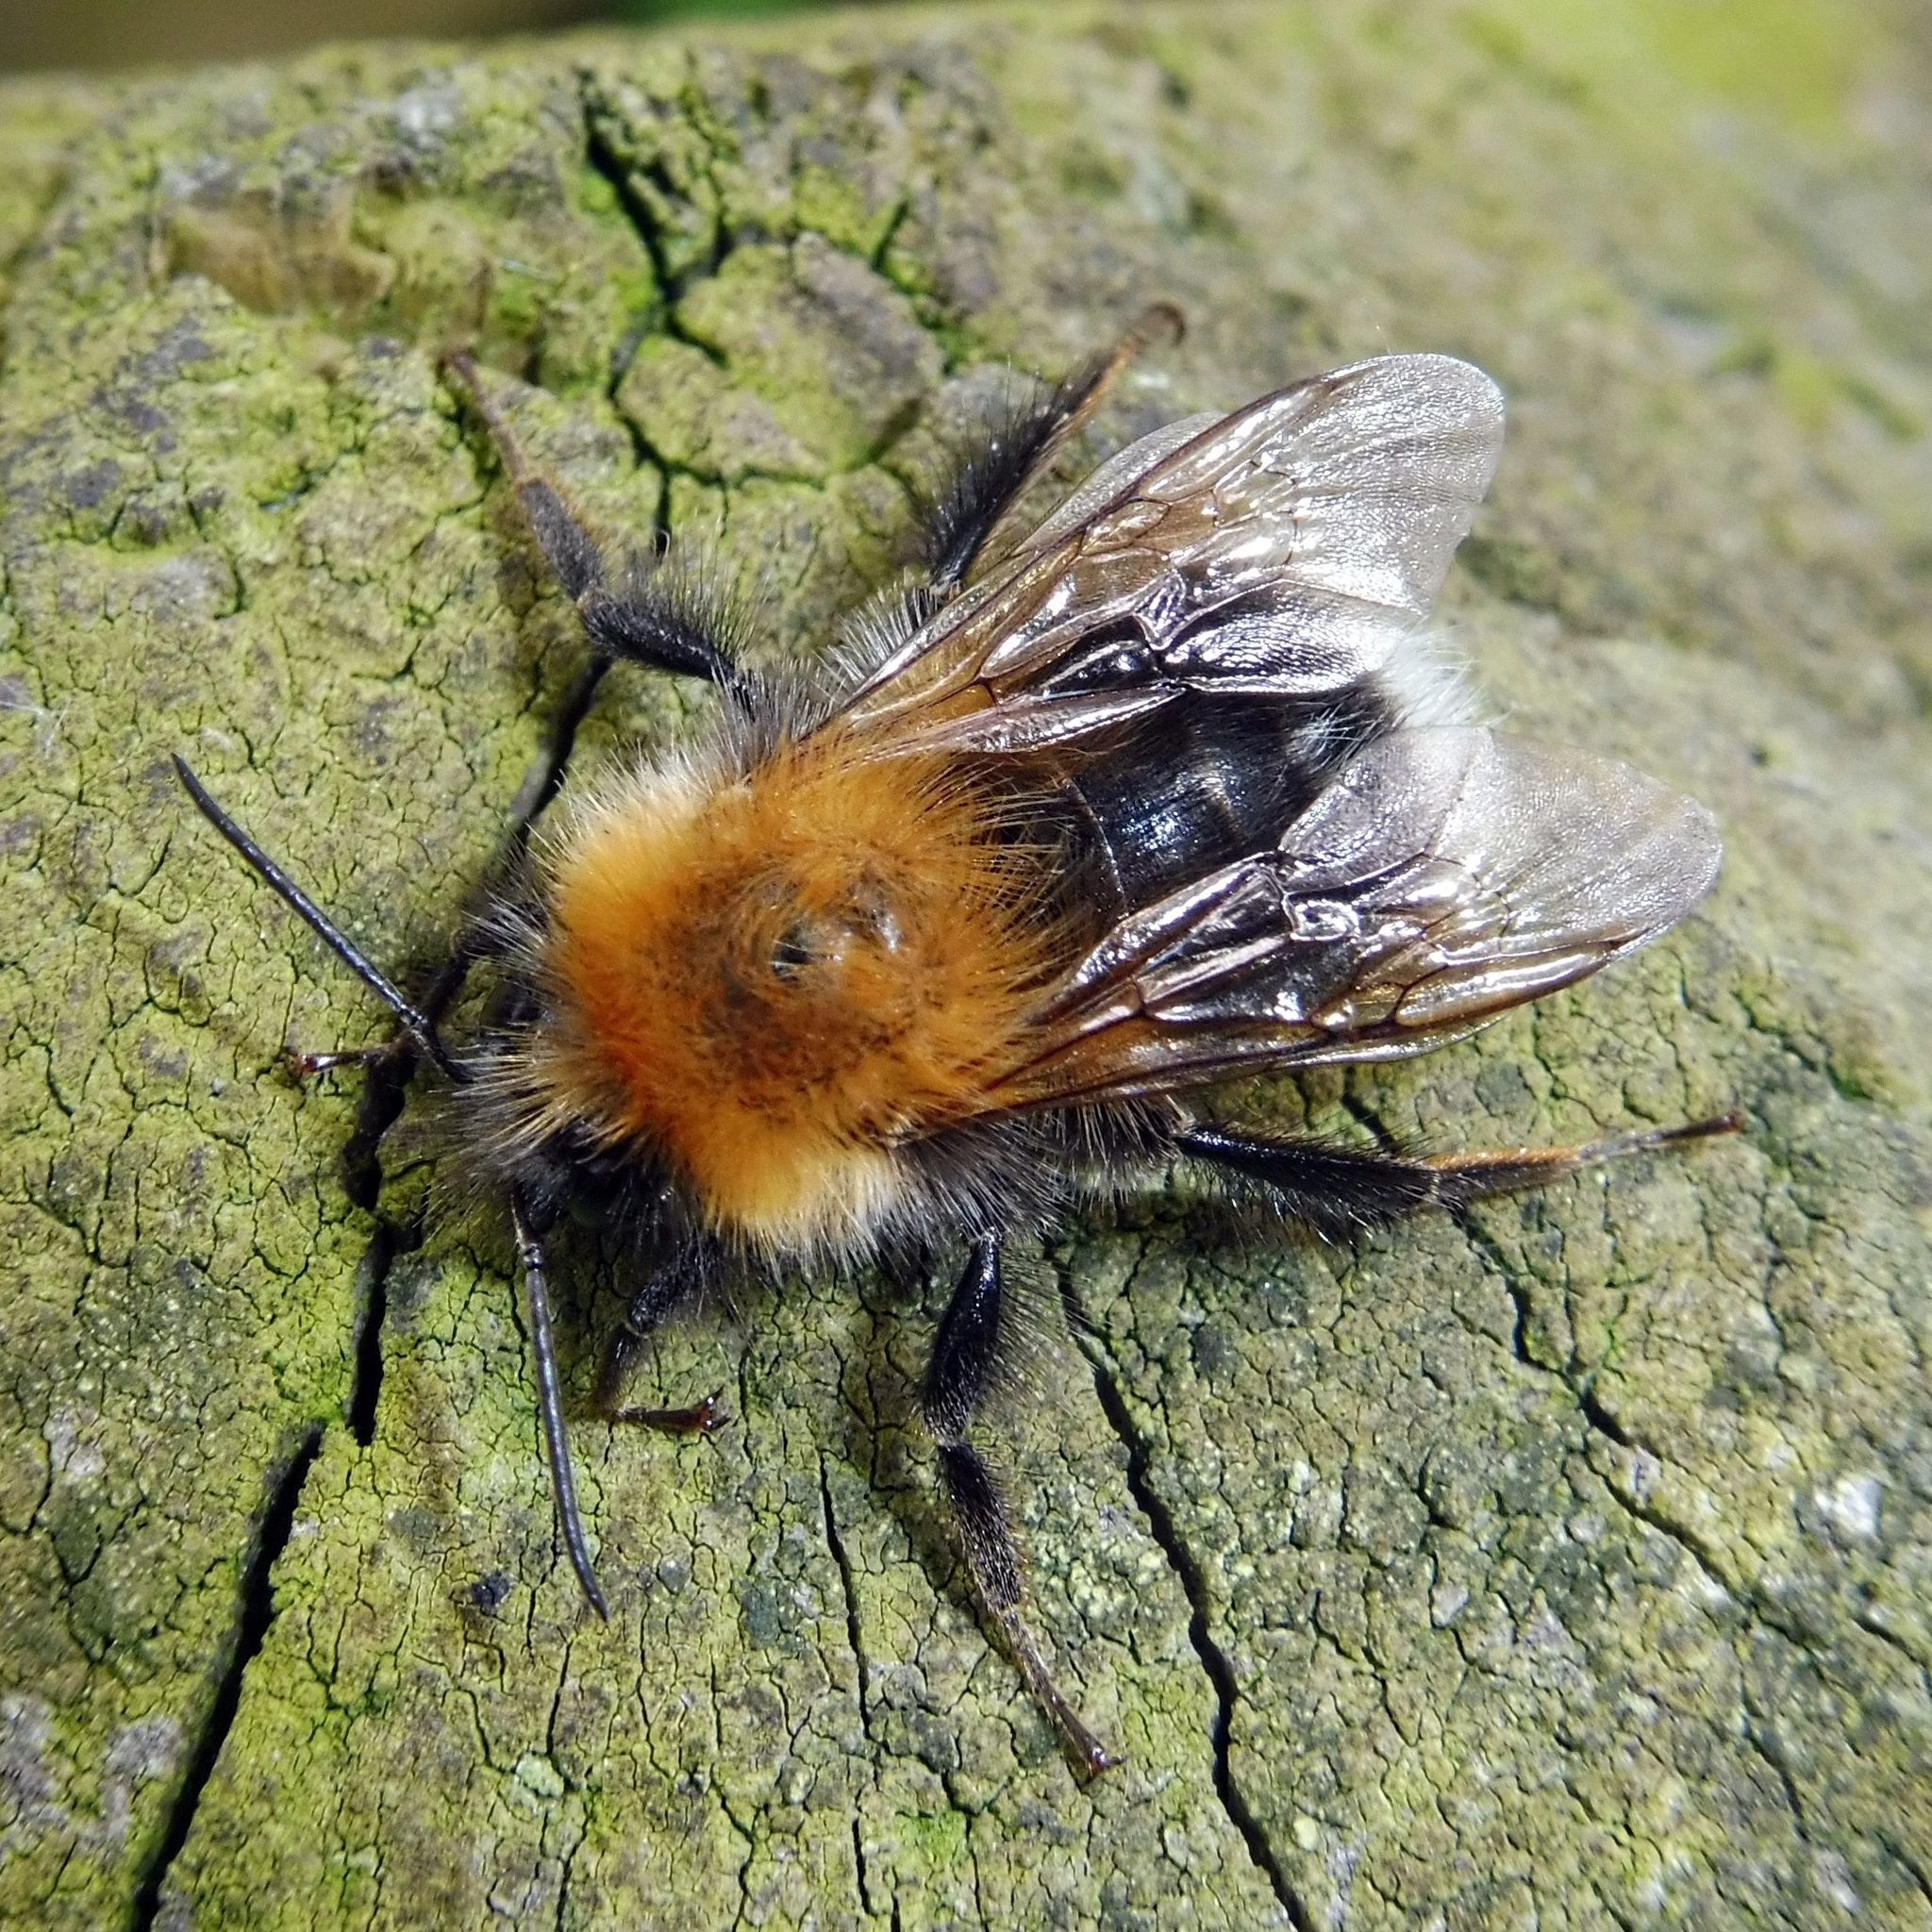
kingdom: Animalia
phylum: Arthropoda
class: Insecta
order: Hymenoptera
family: Apidae
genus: Bombus
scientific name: Bombus hypnorum
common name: New garden bumblebee
